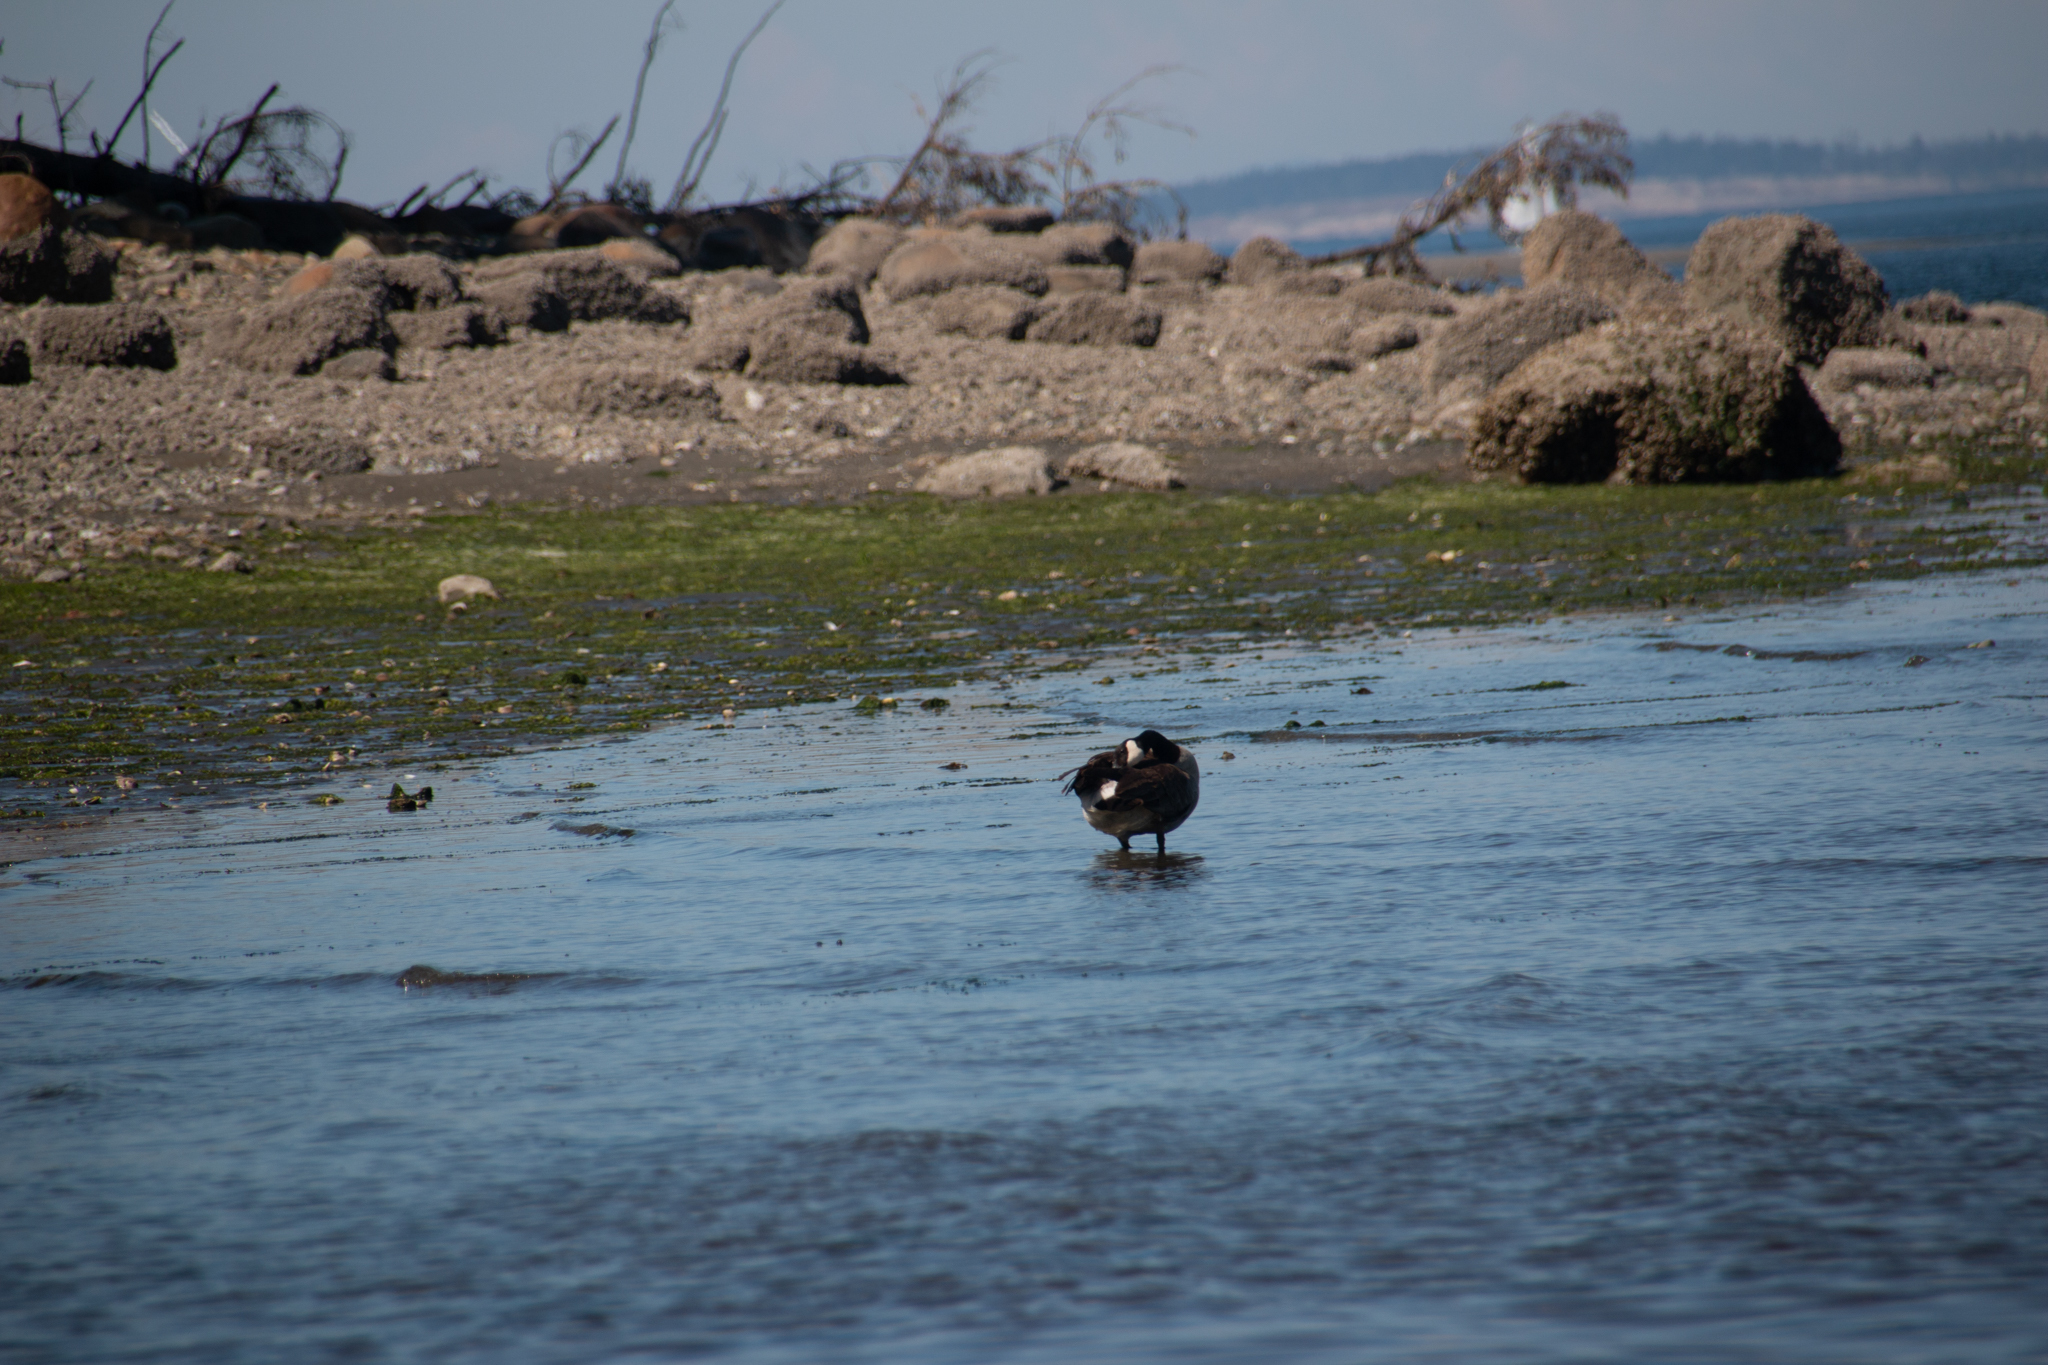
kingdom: Animalia
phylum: Chordata
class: Aves
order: Anseriformes
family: Anatidae
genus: Branta
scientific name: Branta canadensis
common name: Canada goose
